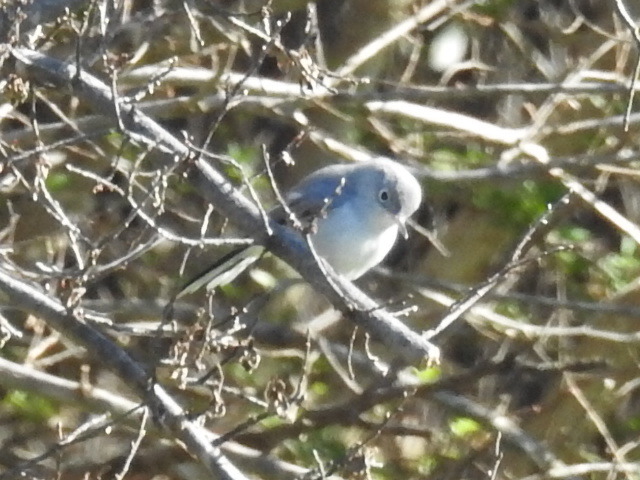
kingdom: Animalia
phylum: Chordata
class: Aves
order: Passeriformes
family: Polioptilidae
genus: Polioptila
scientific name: Polioptila caerulea
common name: Blue-gray gnatcatcher
